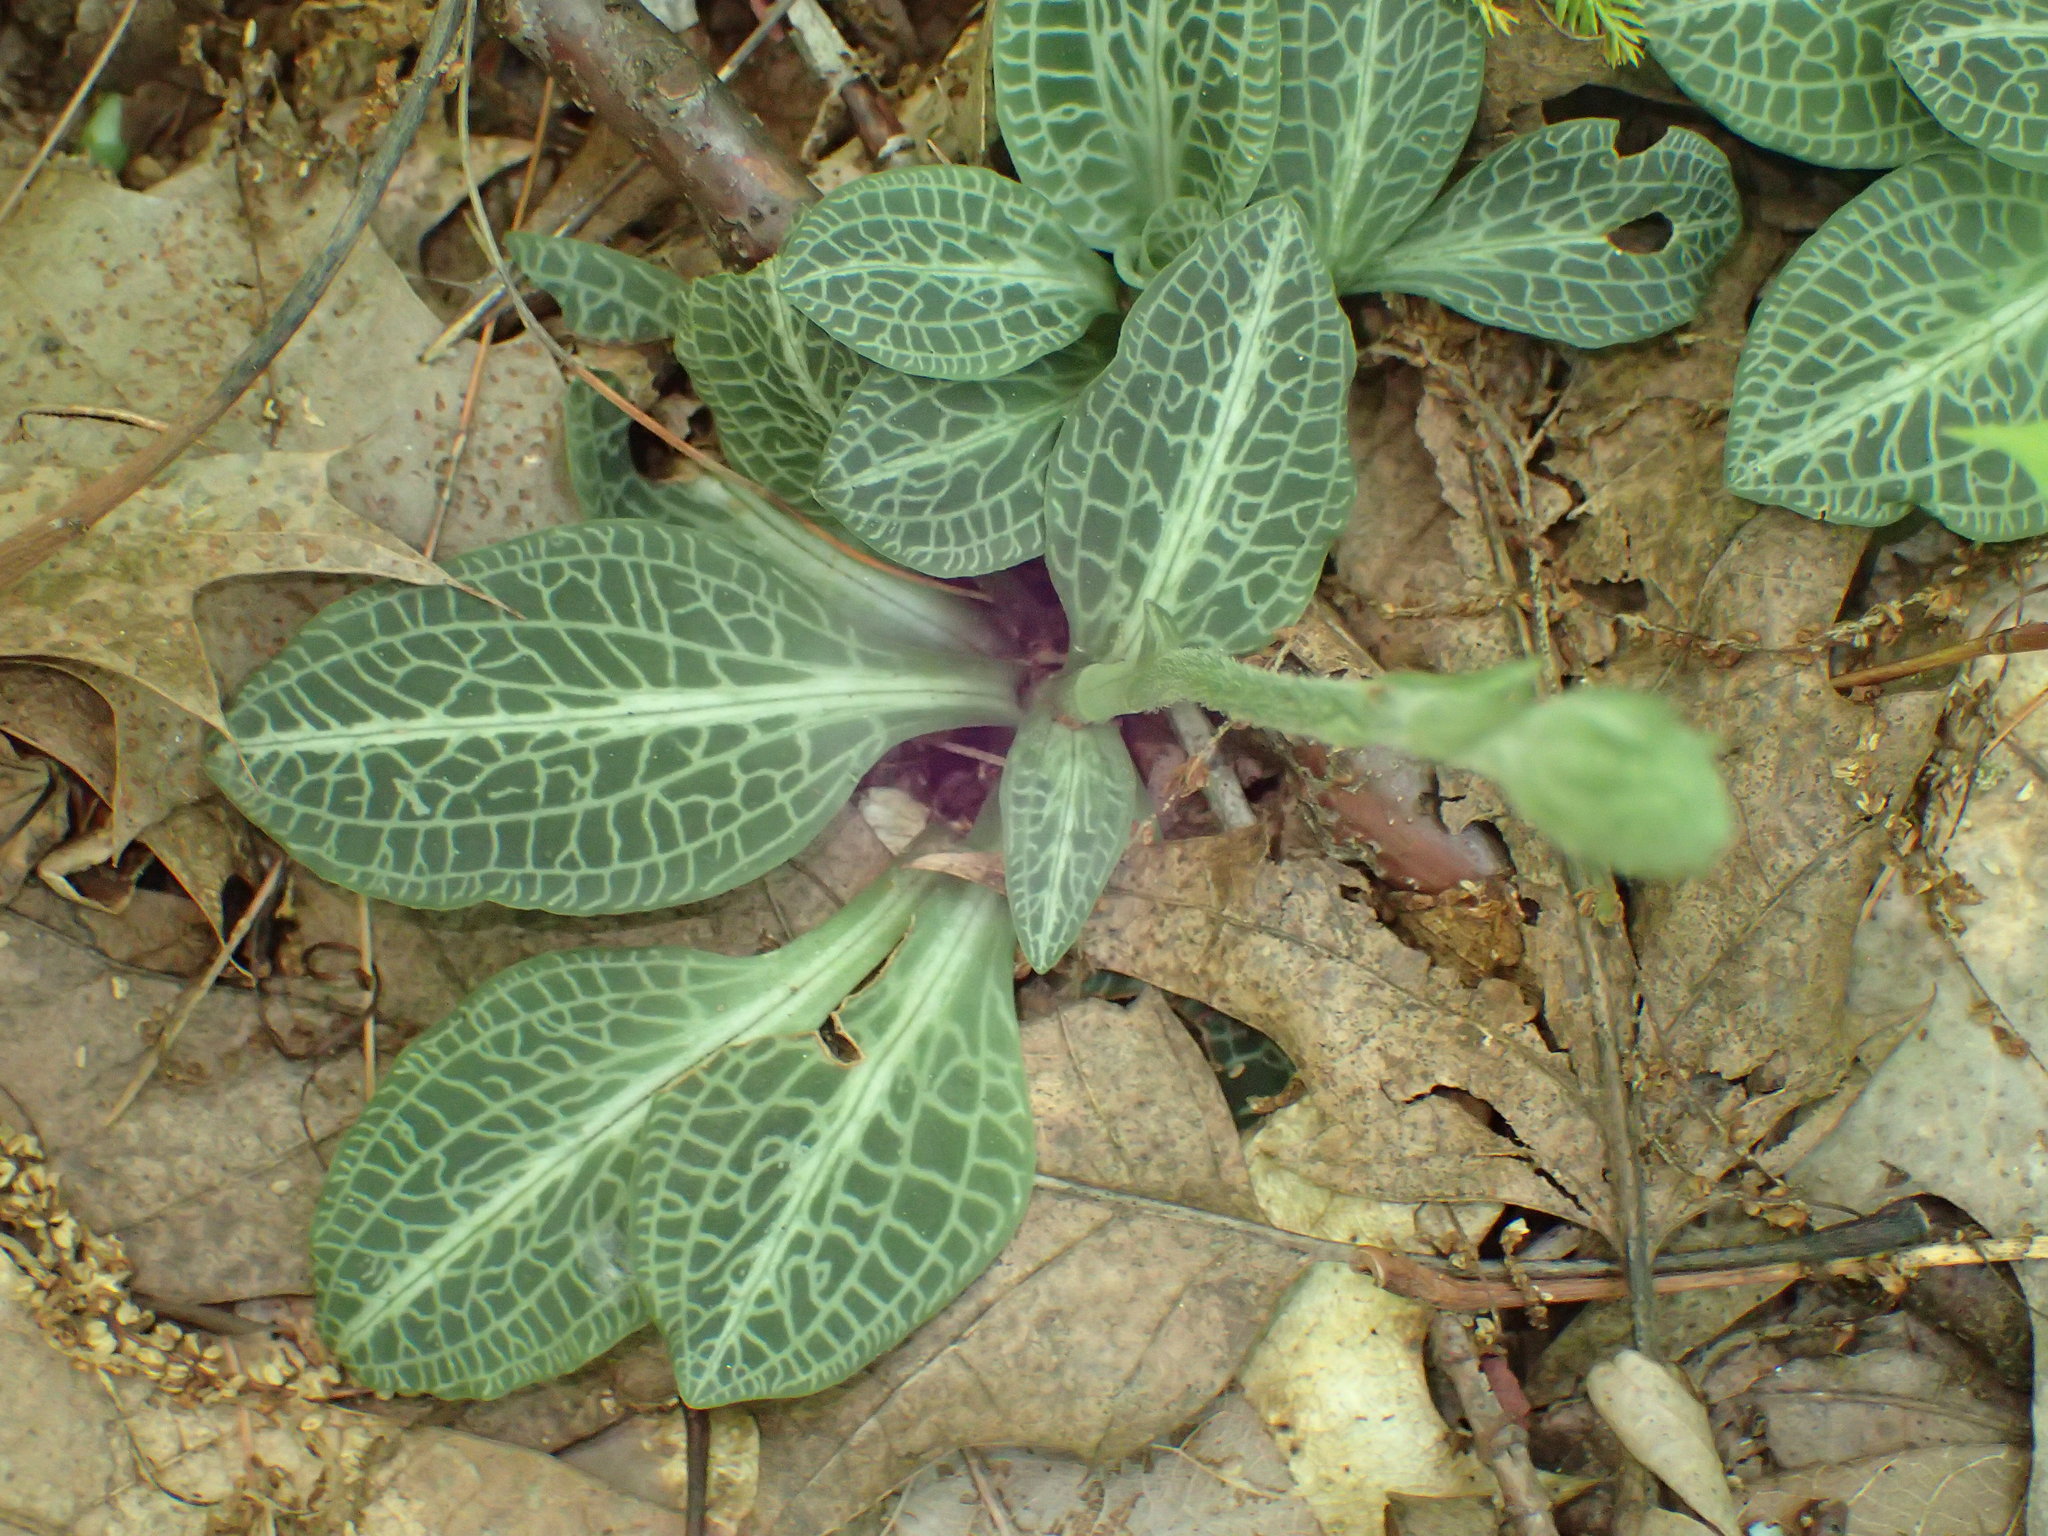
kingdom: Plantae
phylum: Tracheophyta
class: Liliopsida
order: Asparagales
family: Orchidaceae
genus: Goodyera
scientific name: Goodyera pubescens
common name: Downy rattlesnake-plantain
